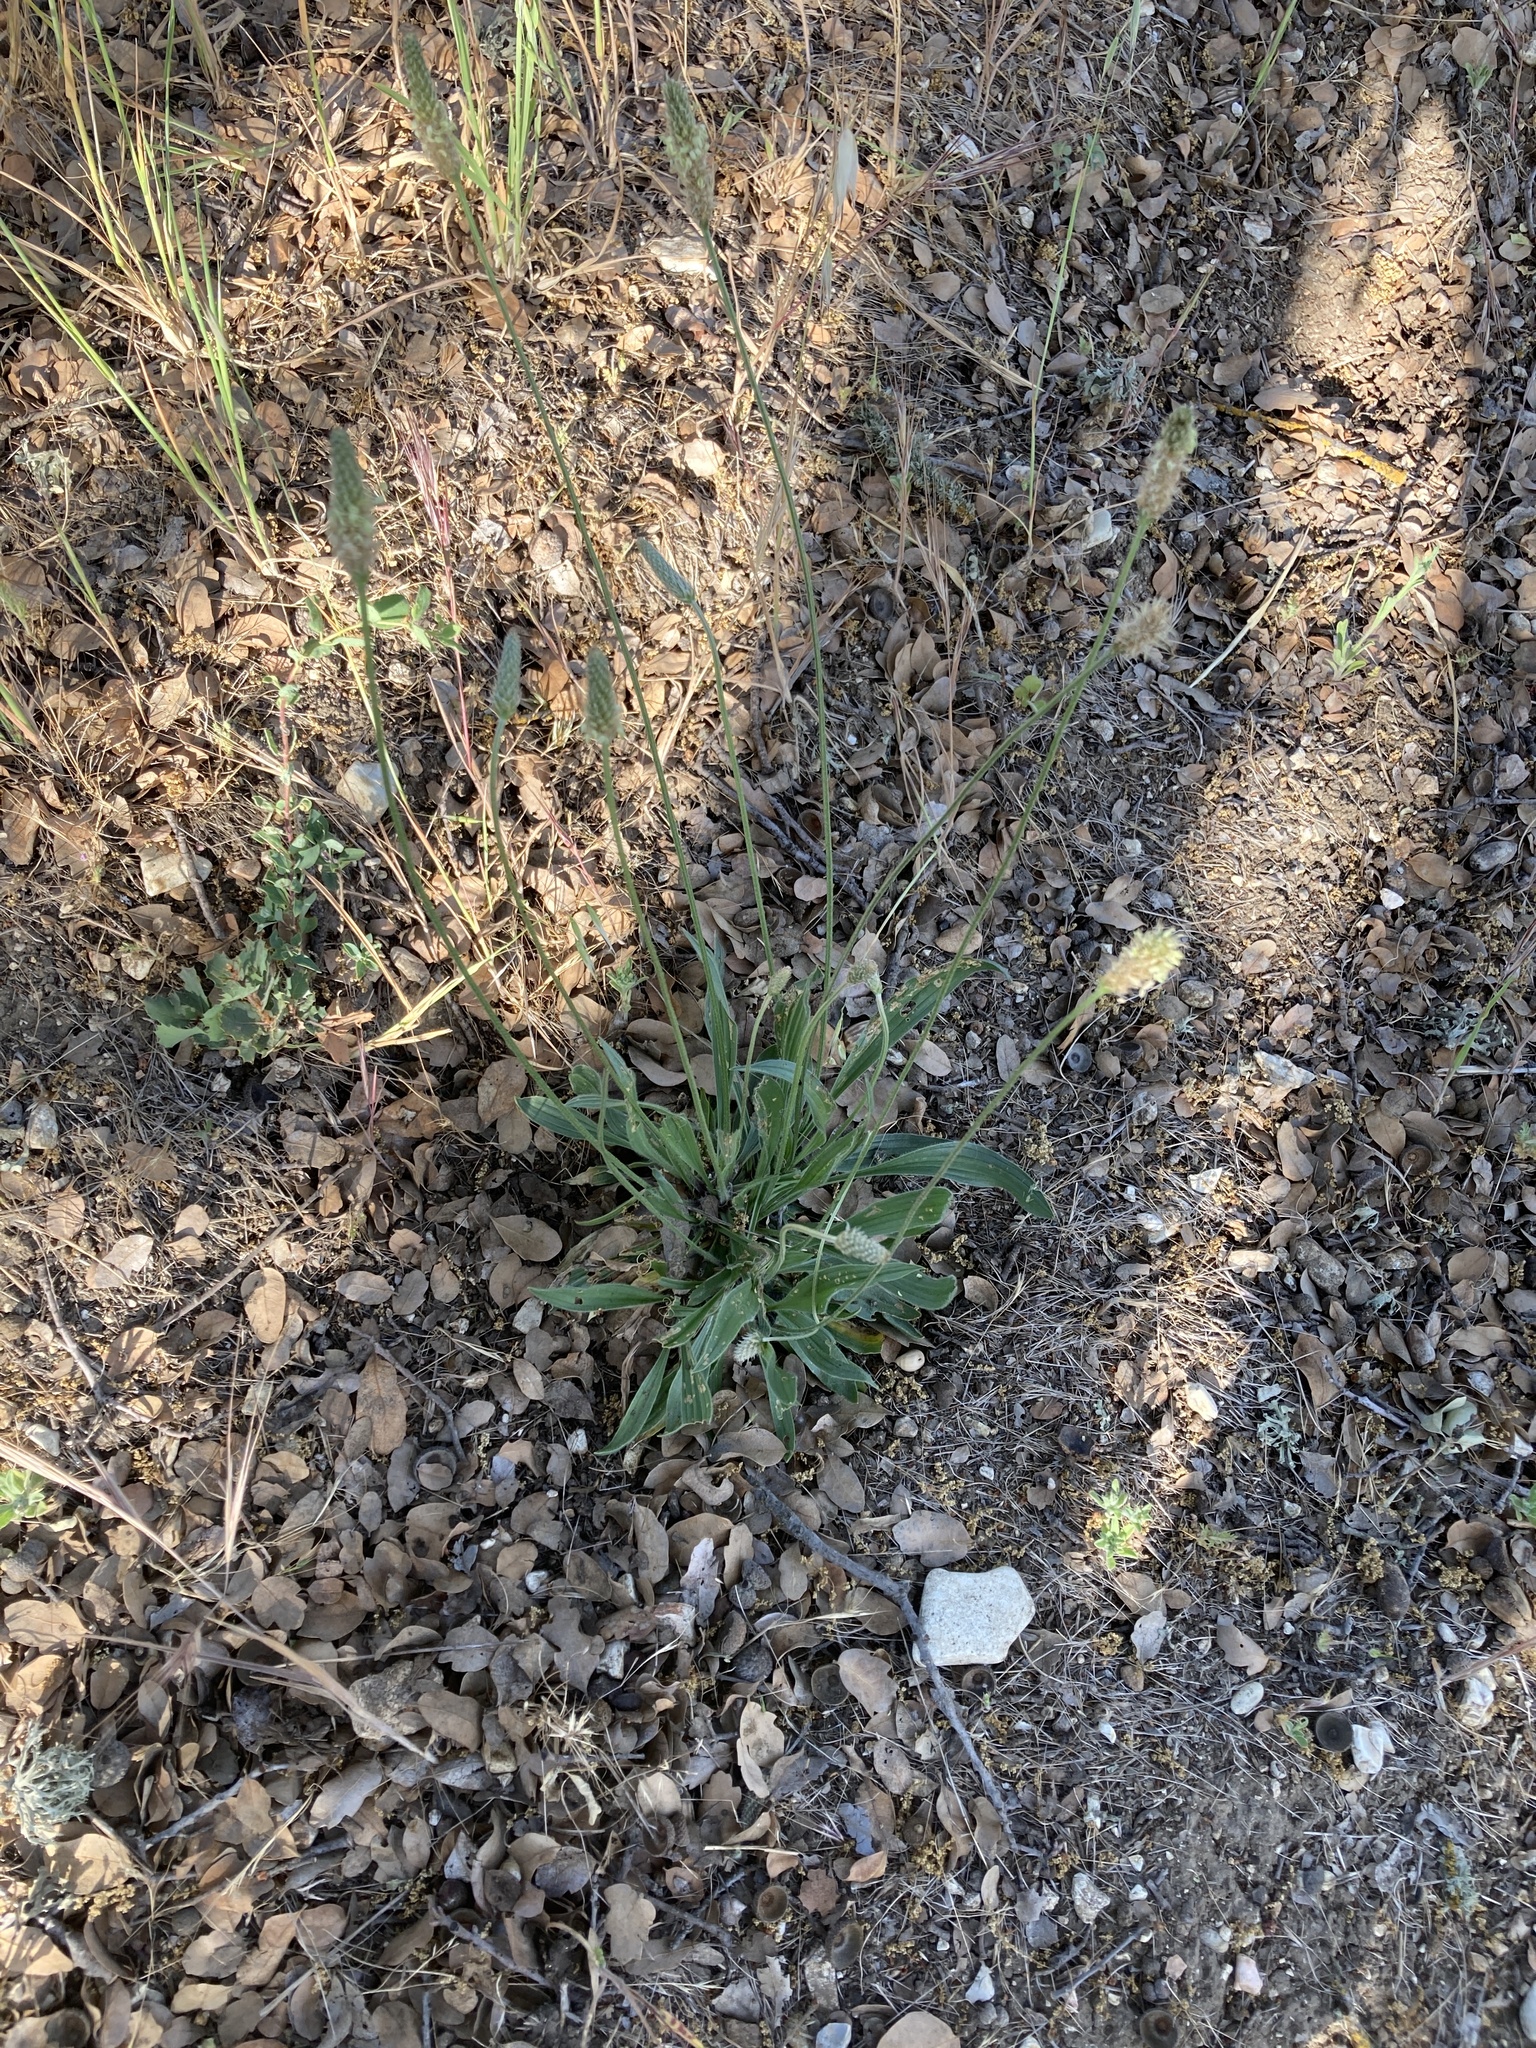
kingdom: Plantae
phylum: Tracheophyta
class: Magnoliopsida
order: Lamiales
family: Plantaginaceae
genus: Plantago
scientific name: Plantago lanceolata
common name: Ribwort plantain
